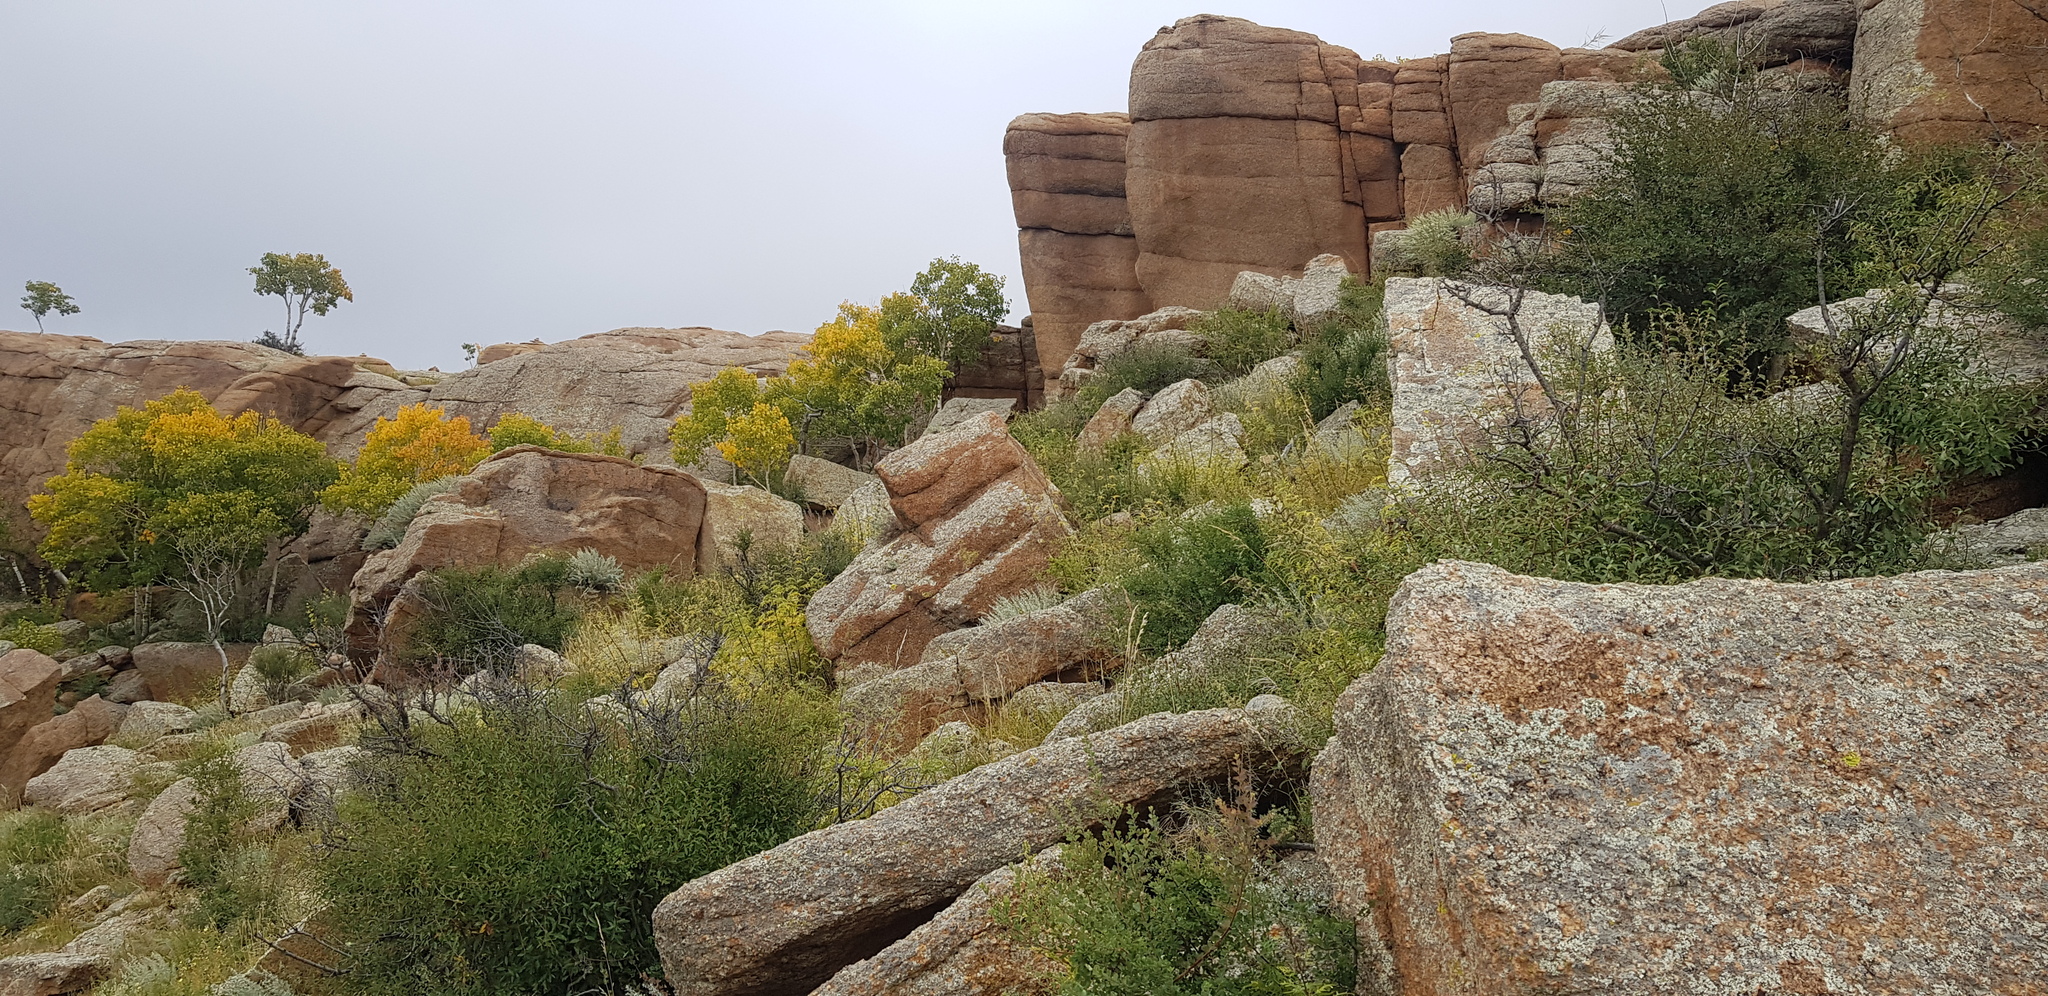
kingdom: Plantae
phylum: Tracheophyta
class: Magnoliopsida
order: Rosales
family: Rosaceae
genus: Prunus
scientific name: Prunus pedunculata
